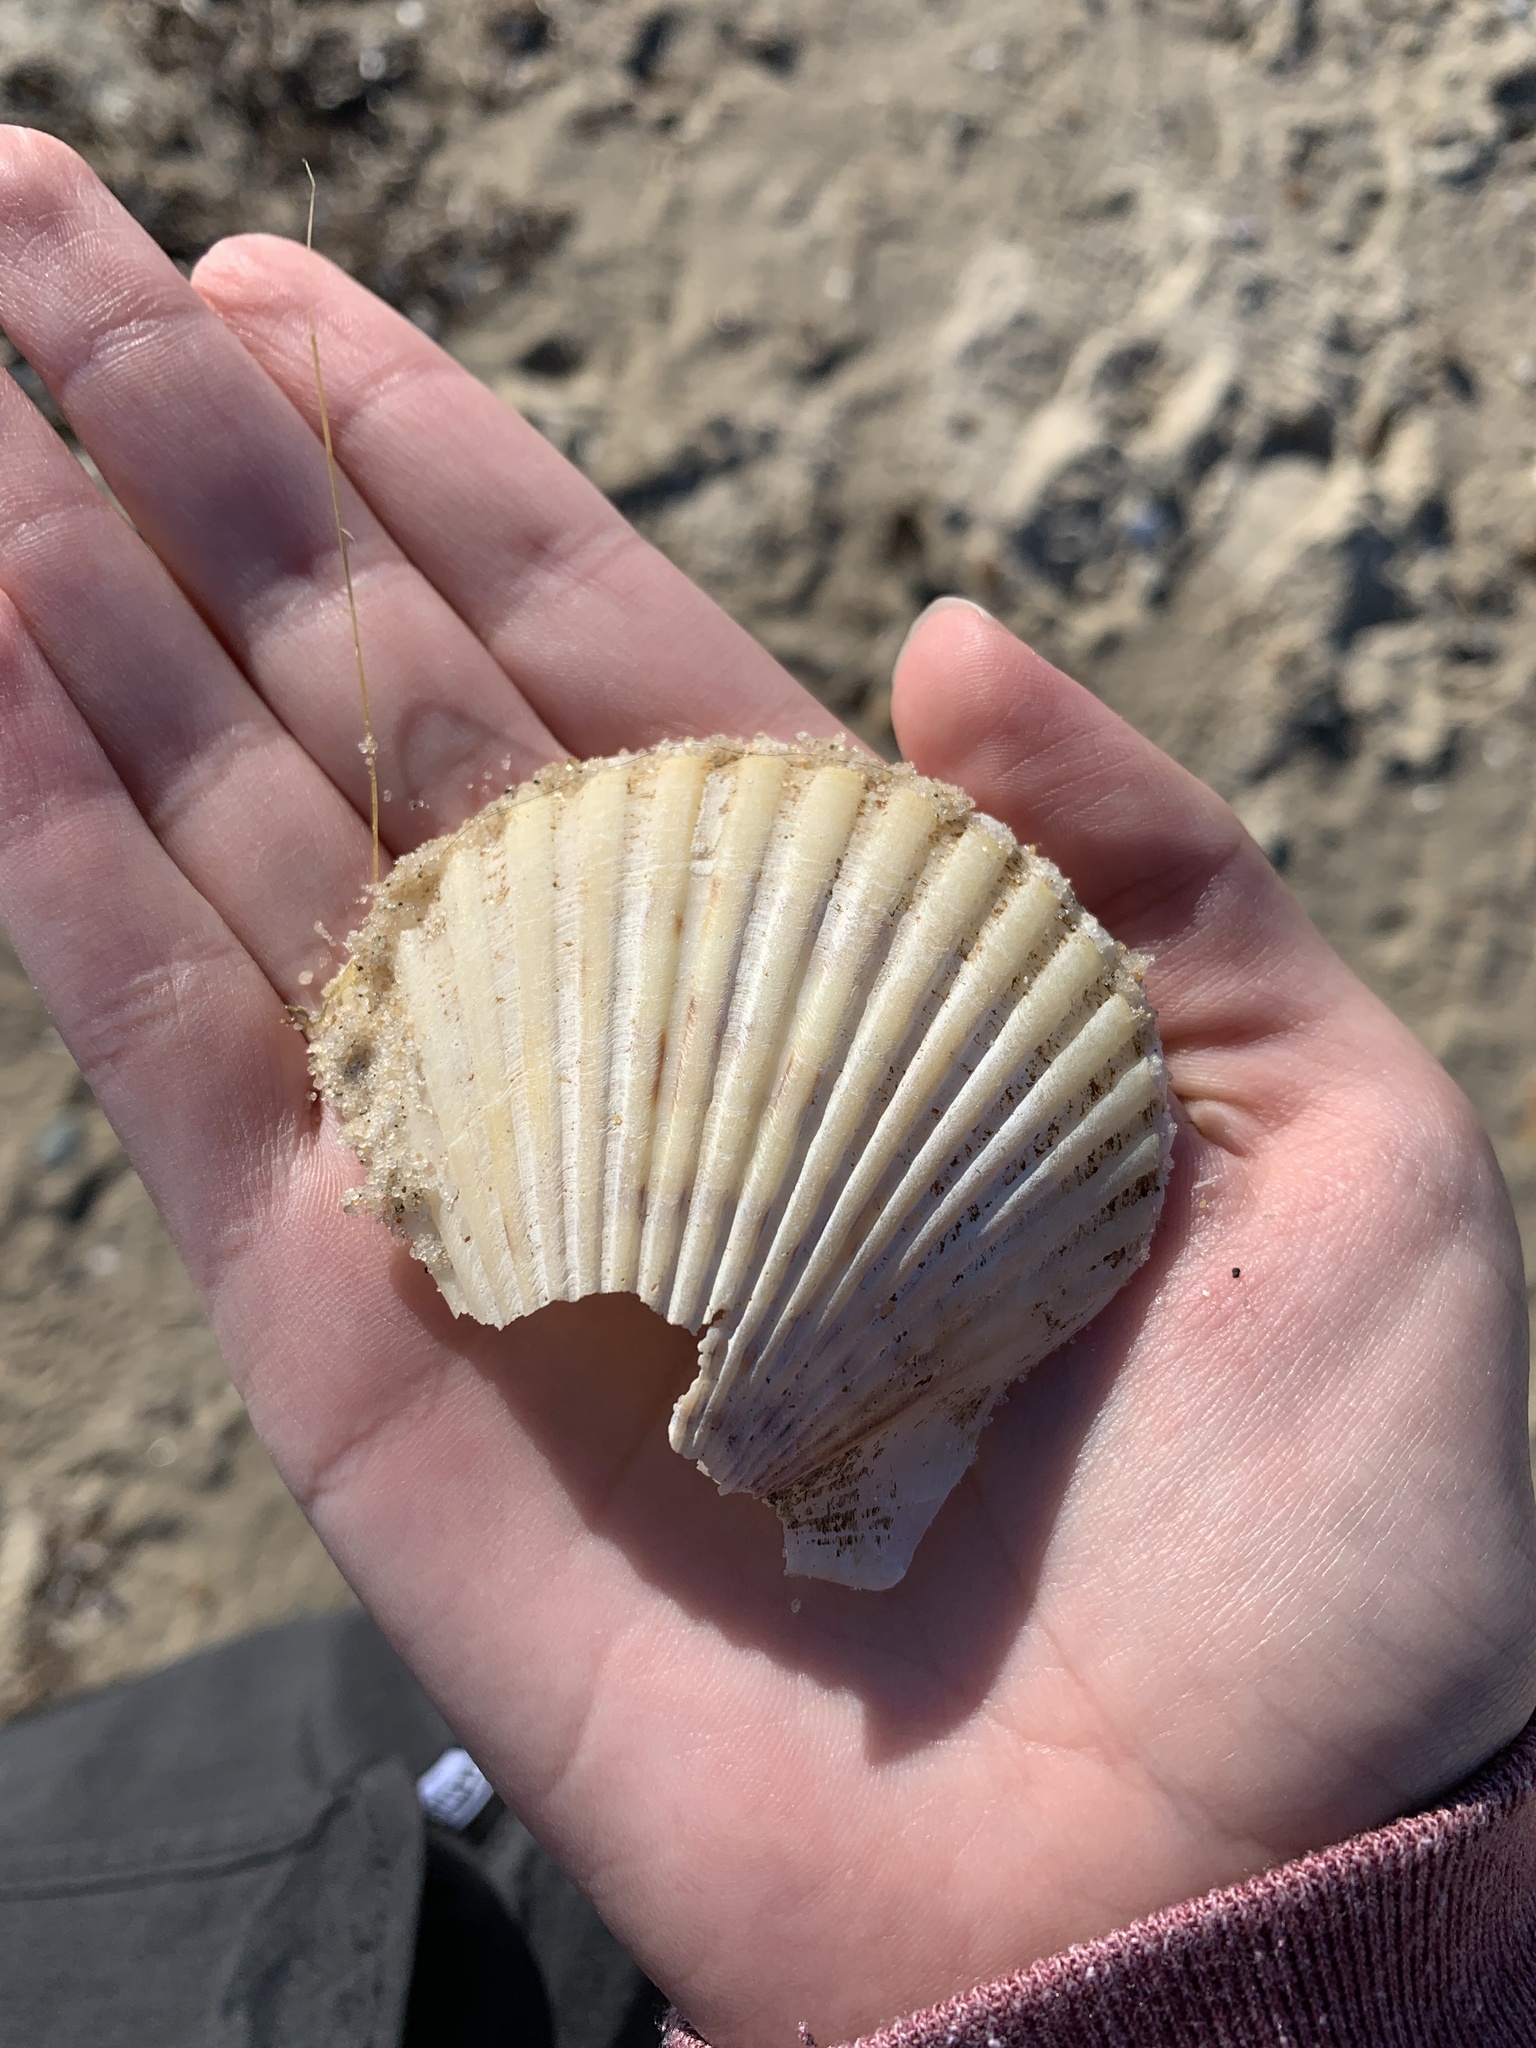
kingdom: Animalia
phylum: Mollusca
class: Bivalvia
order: Pectinida
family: Pectinidae
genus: Argopecten
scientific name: Argopecten irradians
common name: Atlantic bay scallop
